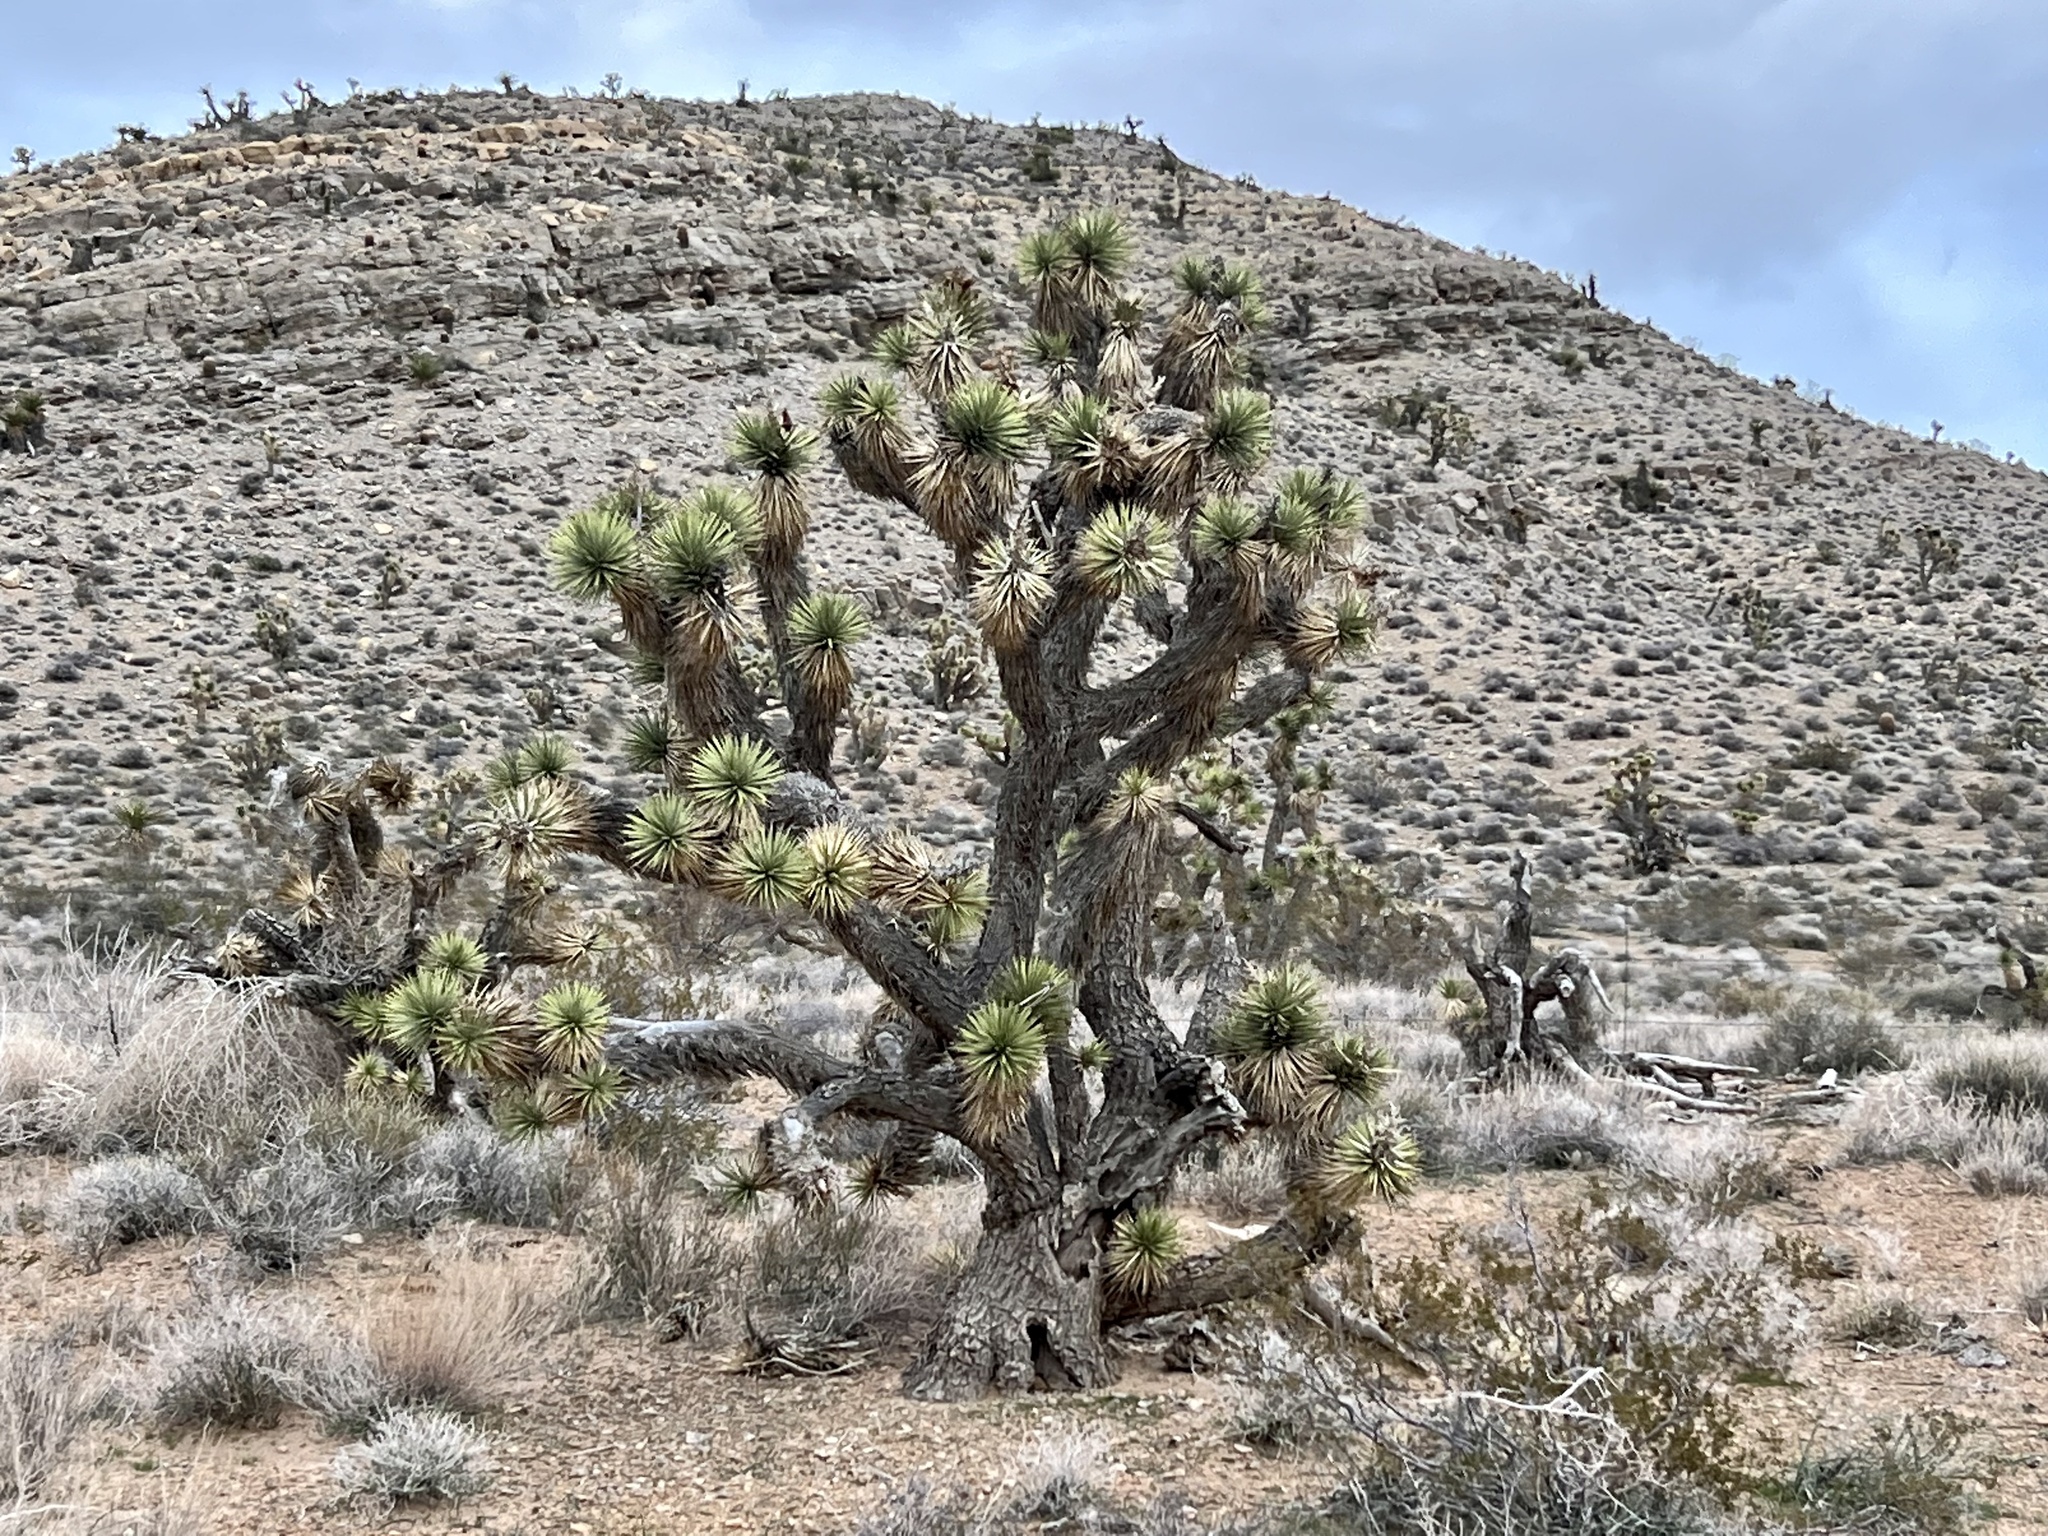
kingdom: Plantae
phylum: Tracheophyta
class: Liliopsida
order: Asparagales
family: Asparagaceae
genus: Yucca
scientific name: Yucca brevifolia
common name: Joshua tree
